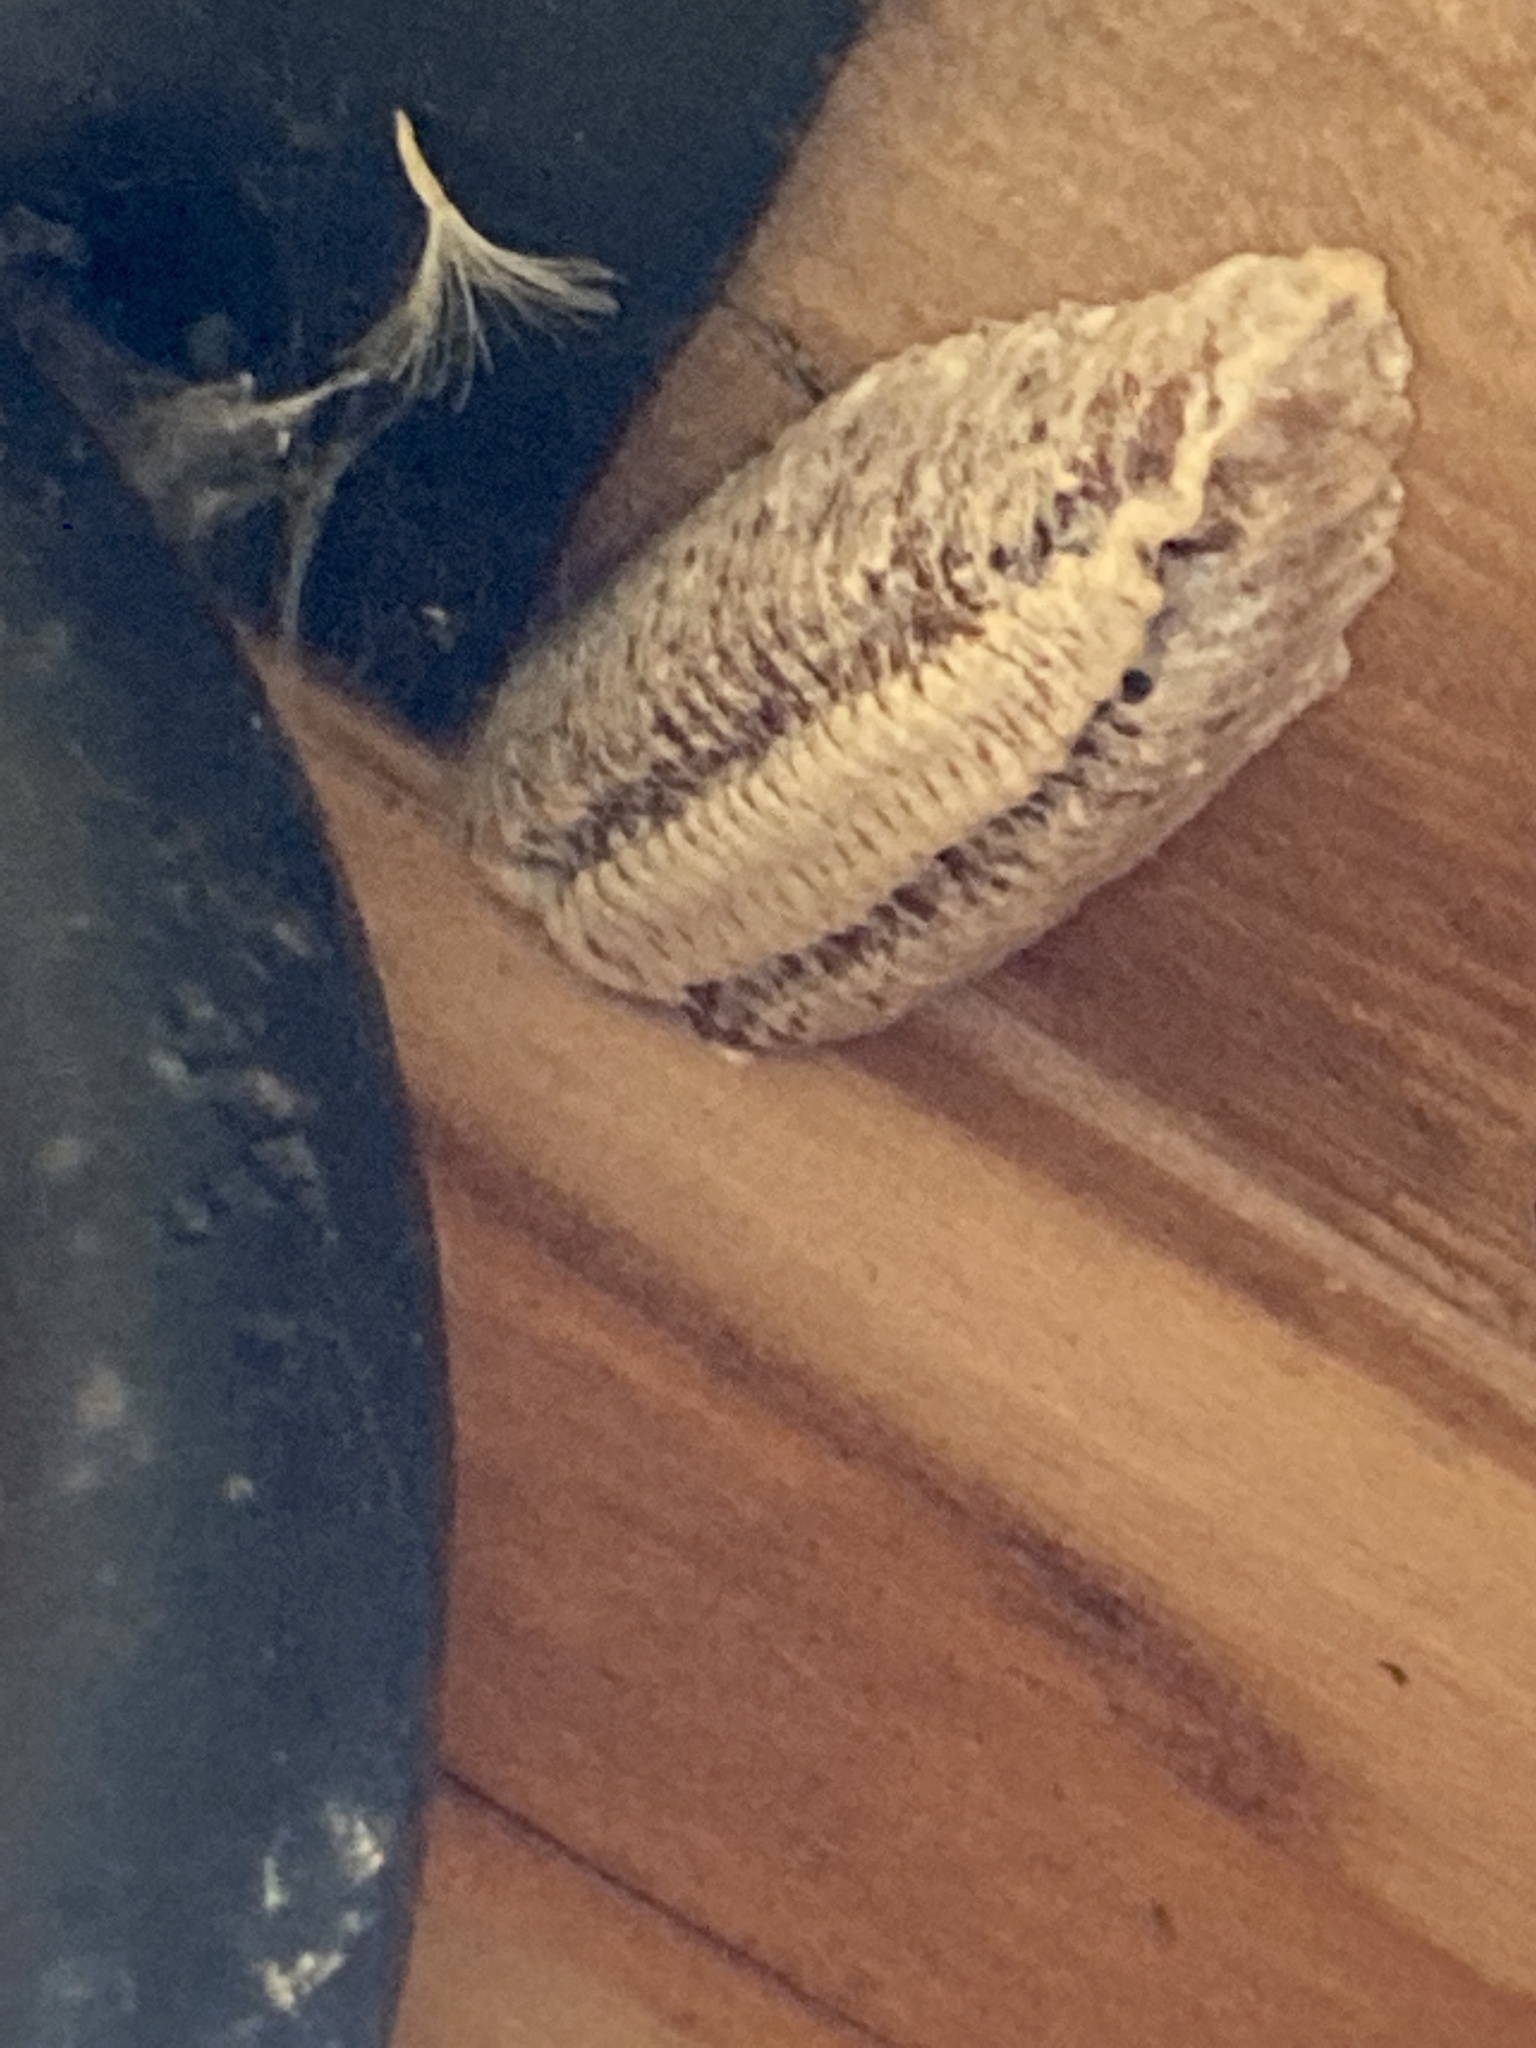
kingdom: Animalia
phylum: Arthropoda
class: Insecta
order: Mantodea
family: Mantidae
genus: Mantis
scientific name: Mantis religiosa
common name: Praying mantis
